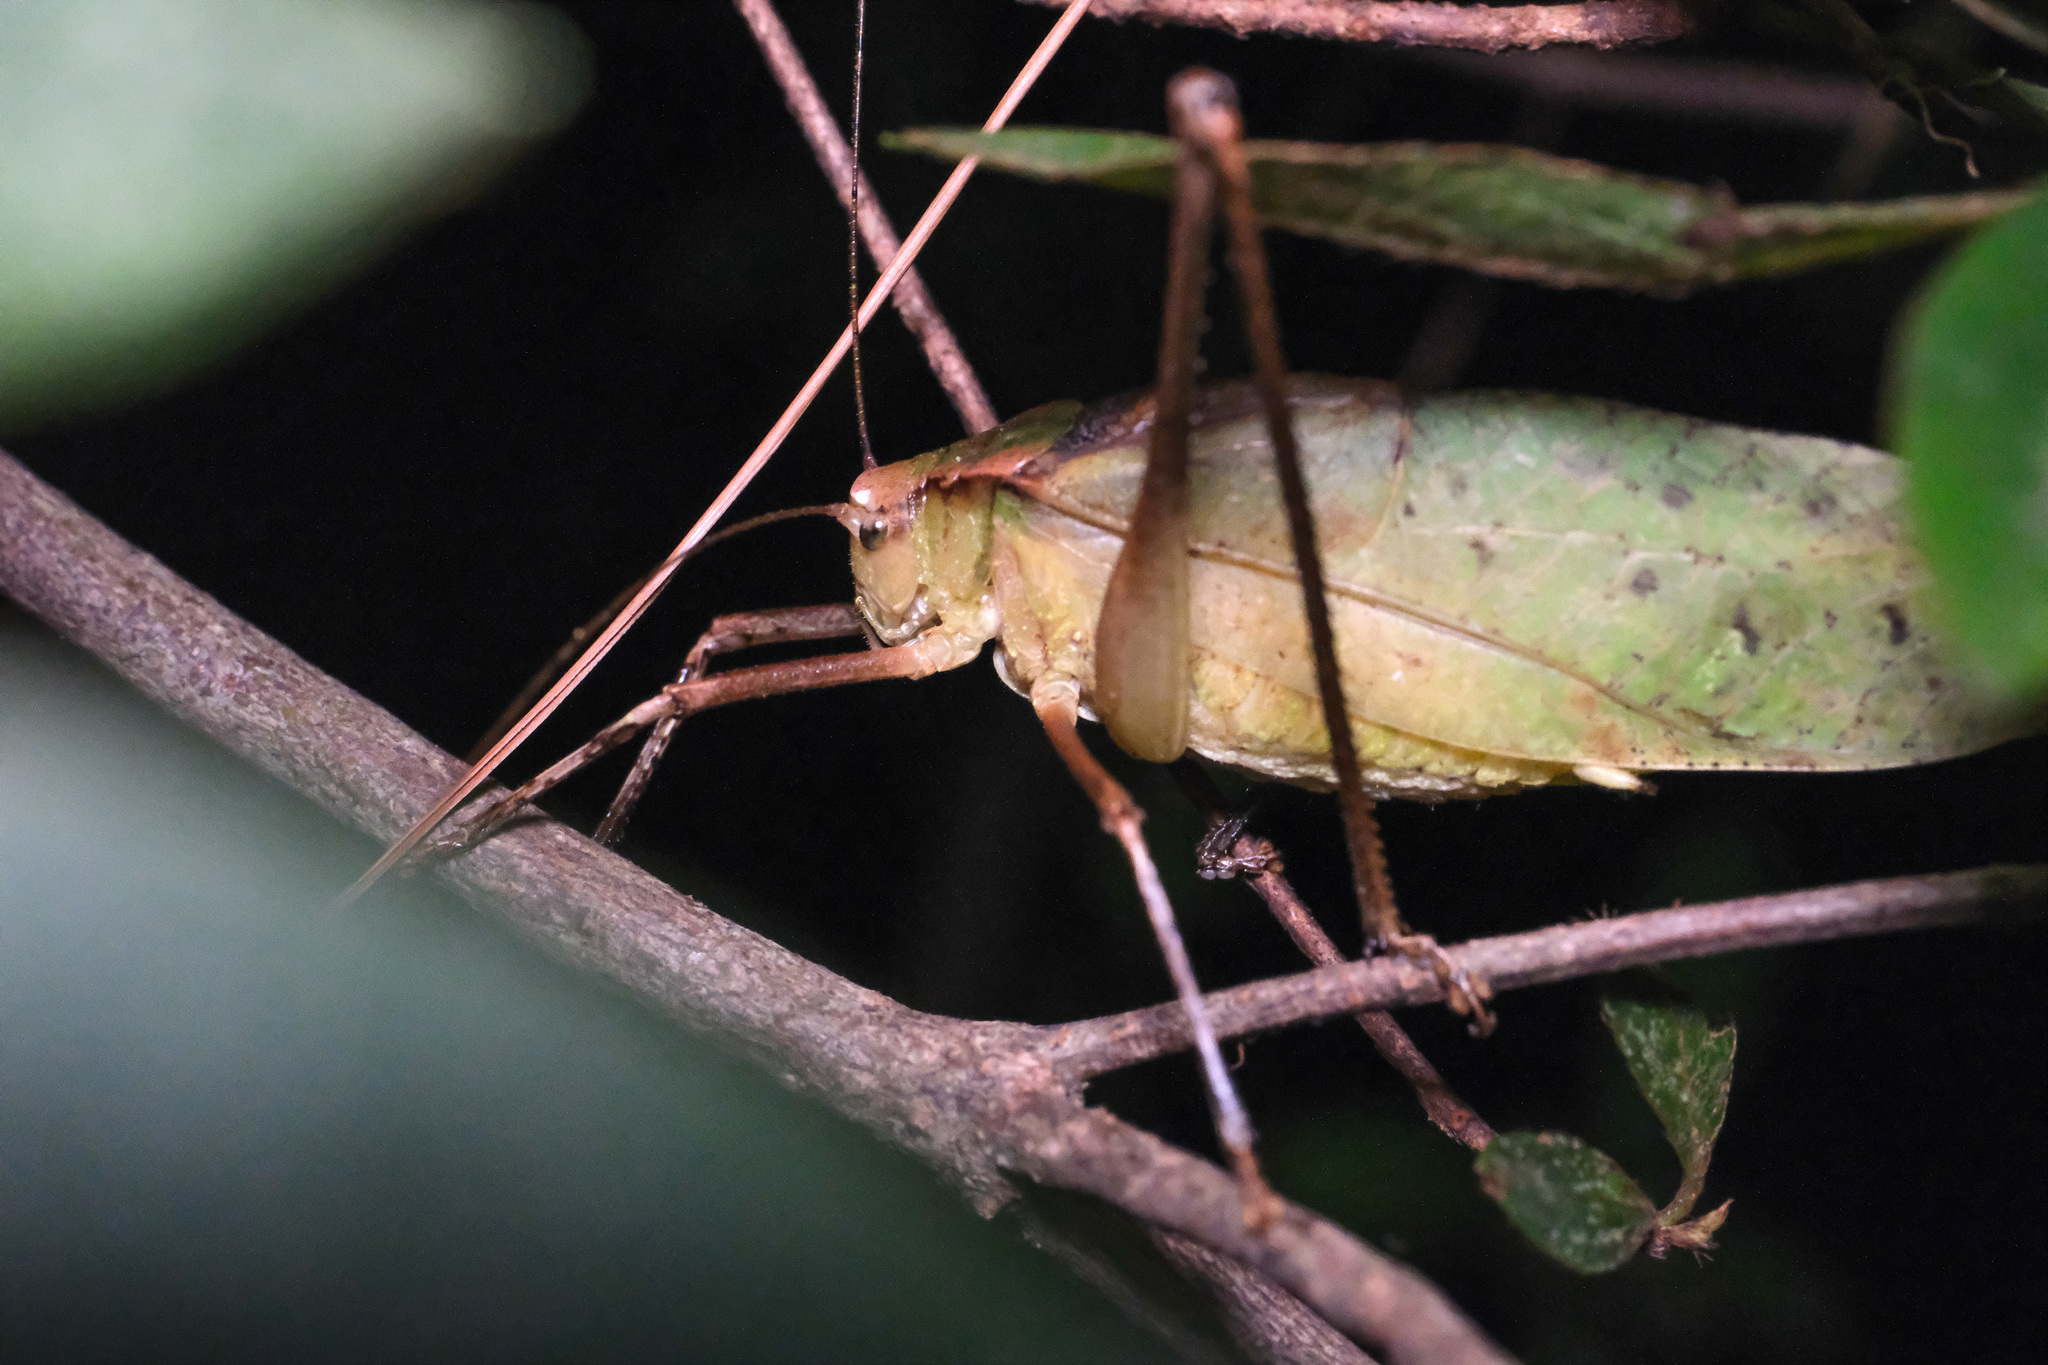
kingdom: Animalia
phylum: Arthropoda
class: Insecta
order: Orthoptera
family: Tettigoniidae
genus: Mecopoda
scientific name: Mecopoda elongata
